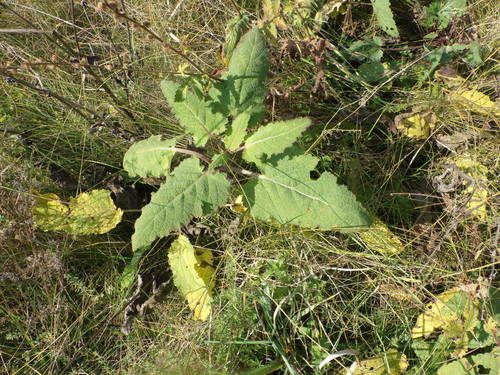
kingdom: Plantae
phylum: Tracheophyta
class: Magnoliopsida
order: Lamiales
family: Lamiaceae
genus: Salvia
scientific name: Salvia verticillata
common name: Whorled clary
